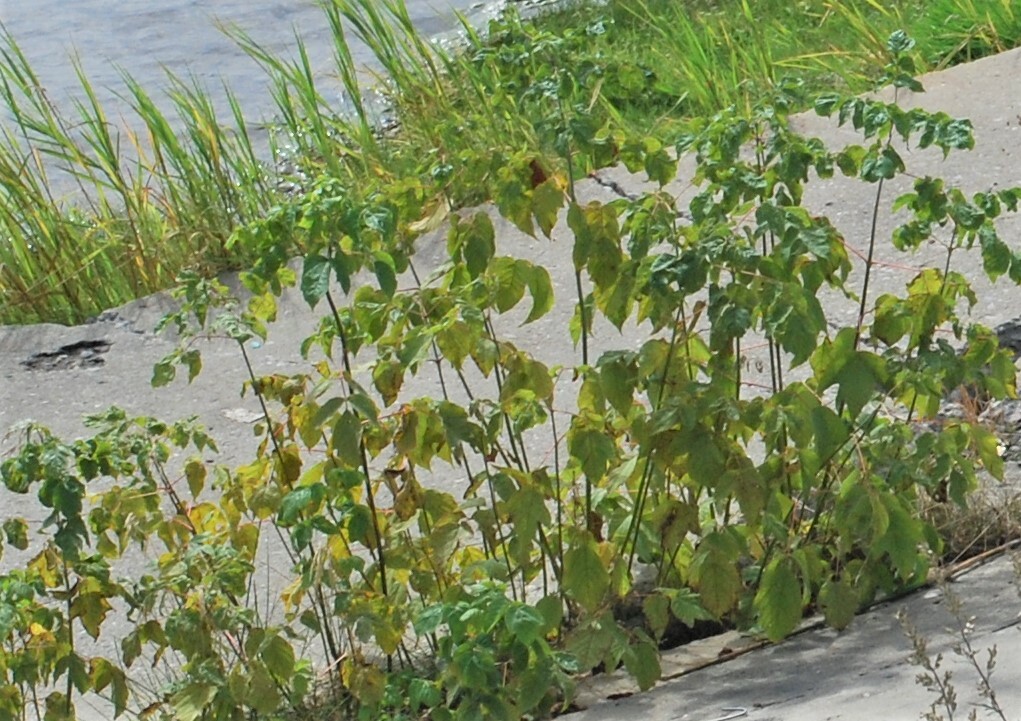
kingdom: Plantae
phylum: Tracheophyta
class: Magnoliopsida
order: Sapindales
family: Sapindaceae
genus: Acer
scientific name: Acer negundo
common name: Ashleaf maple
